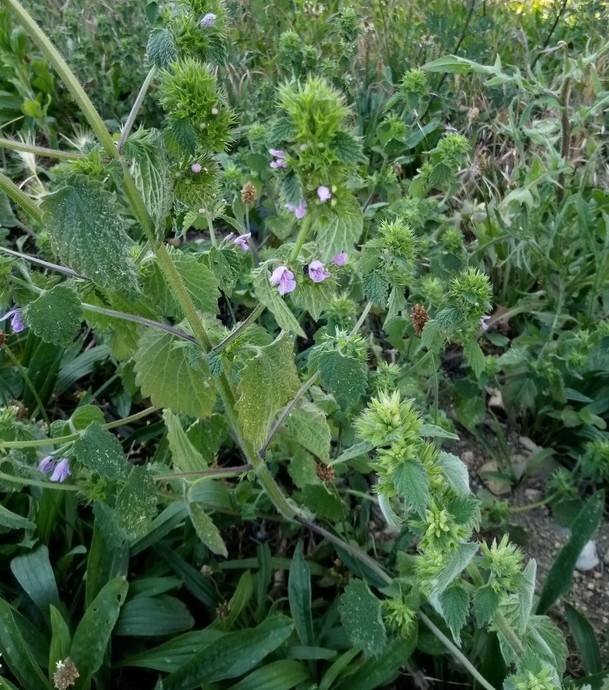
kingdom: Plantae
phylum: Tracheophyta
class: Magnoliopsida
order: Lamiales
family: Lamiaceae
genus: Ballota
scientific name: Ballota nigra
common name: Black horehound
